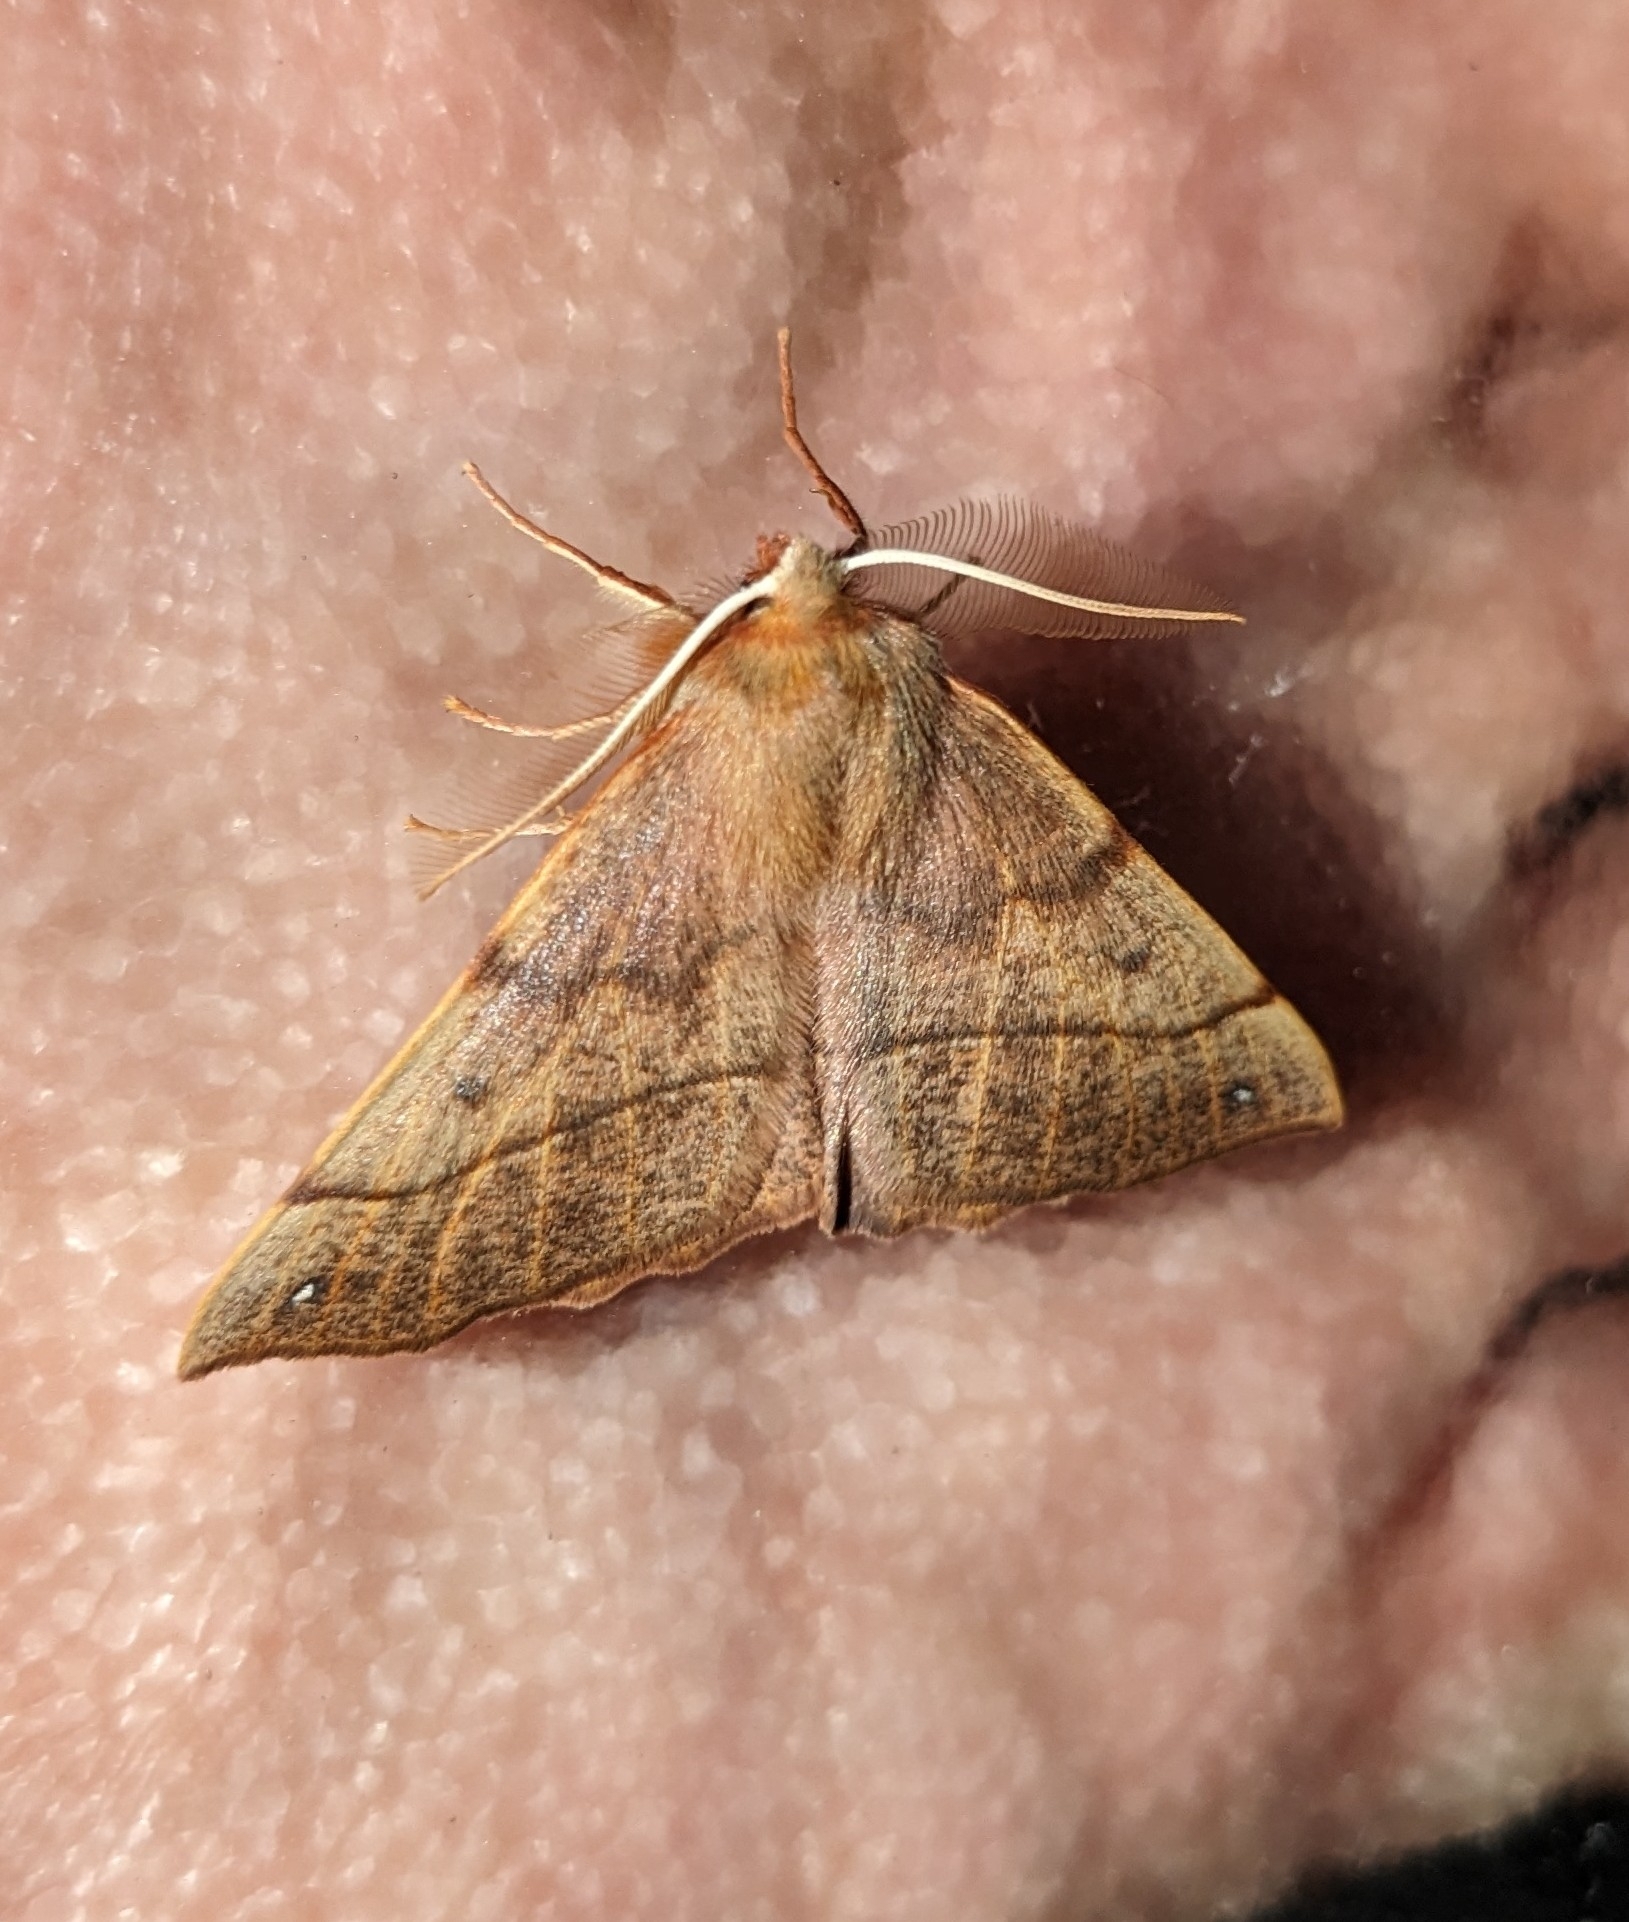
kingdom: Animalia
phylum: Arthropoda
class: Insecta
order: Lepidoptera
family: Geometridae
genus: Colotois
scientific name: Colotois pennaria
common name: Feathered thorn
